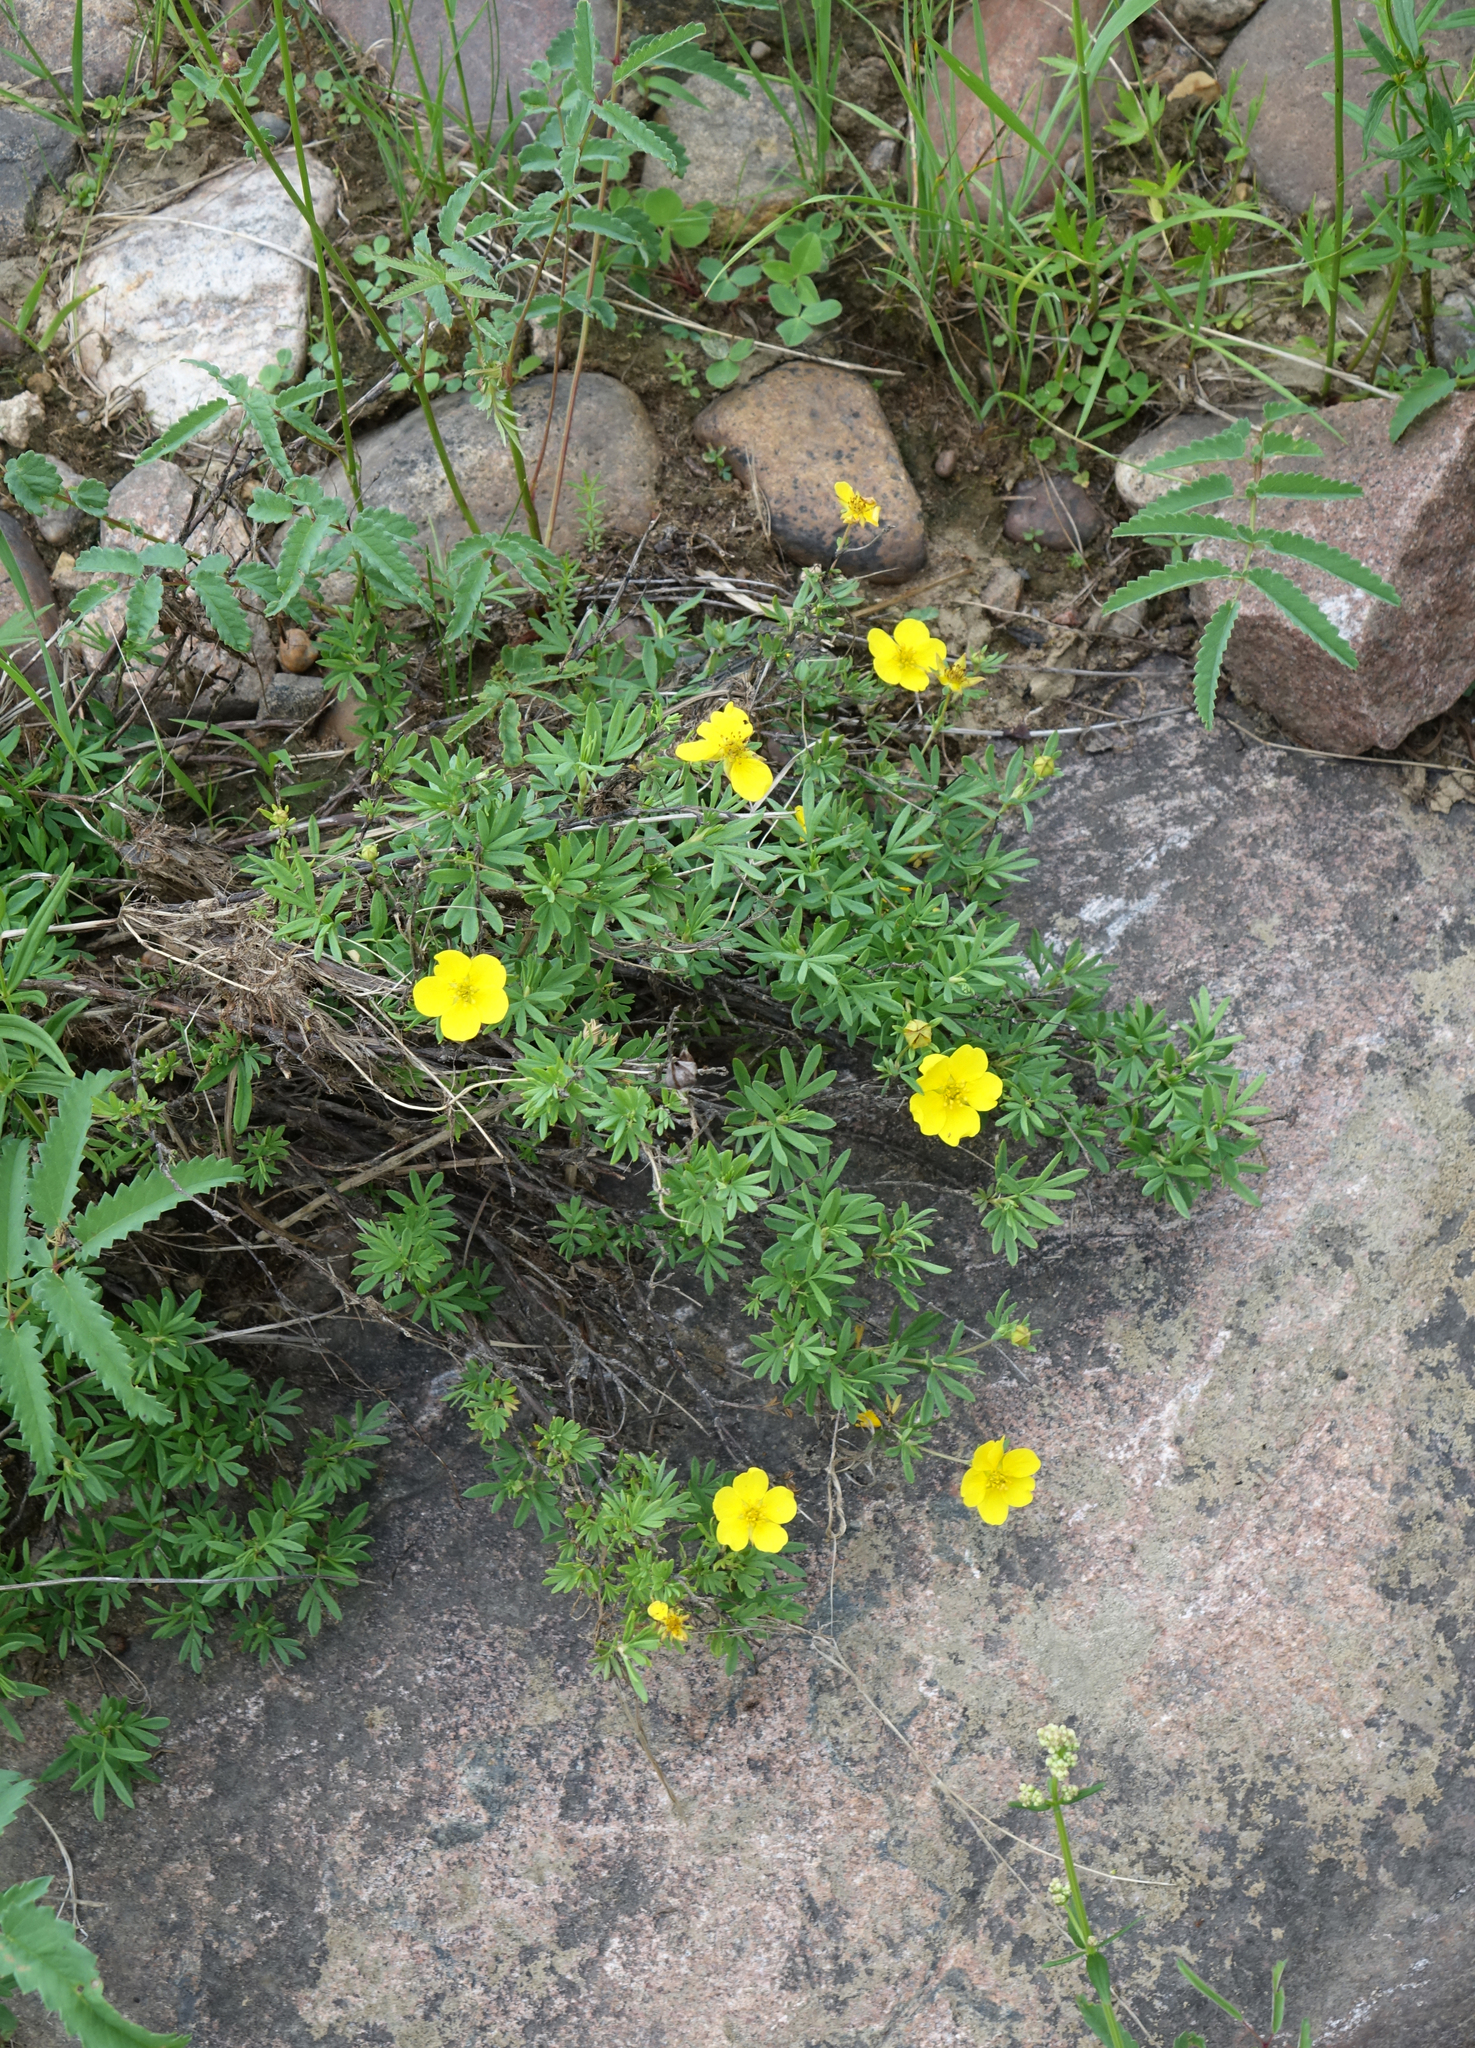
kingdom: Plantae
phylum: Tracheophyta
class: Magnoliopsida
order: Rosales
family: Rosaceae
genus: Dasiphora
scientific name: Dasiphora fruticosa
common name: Shrubby cinquefoil
